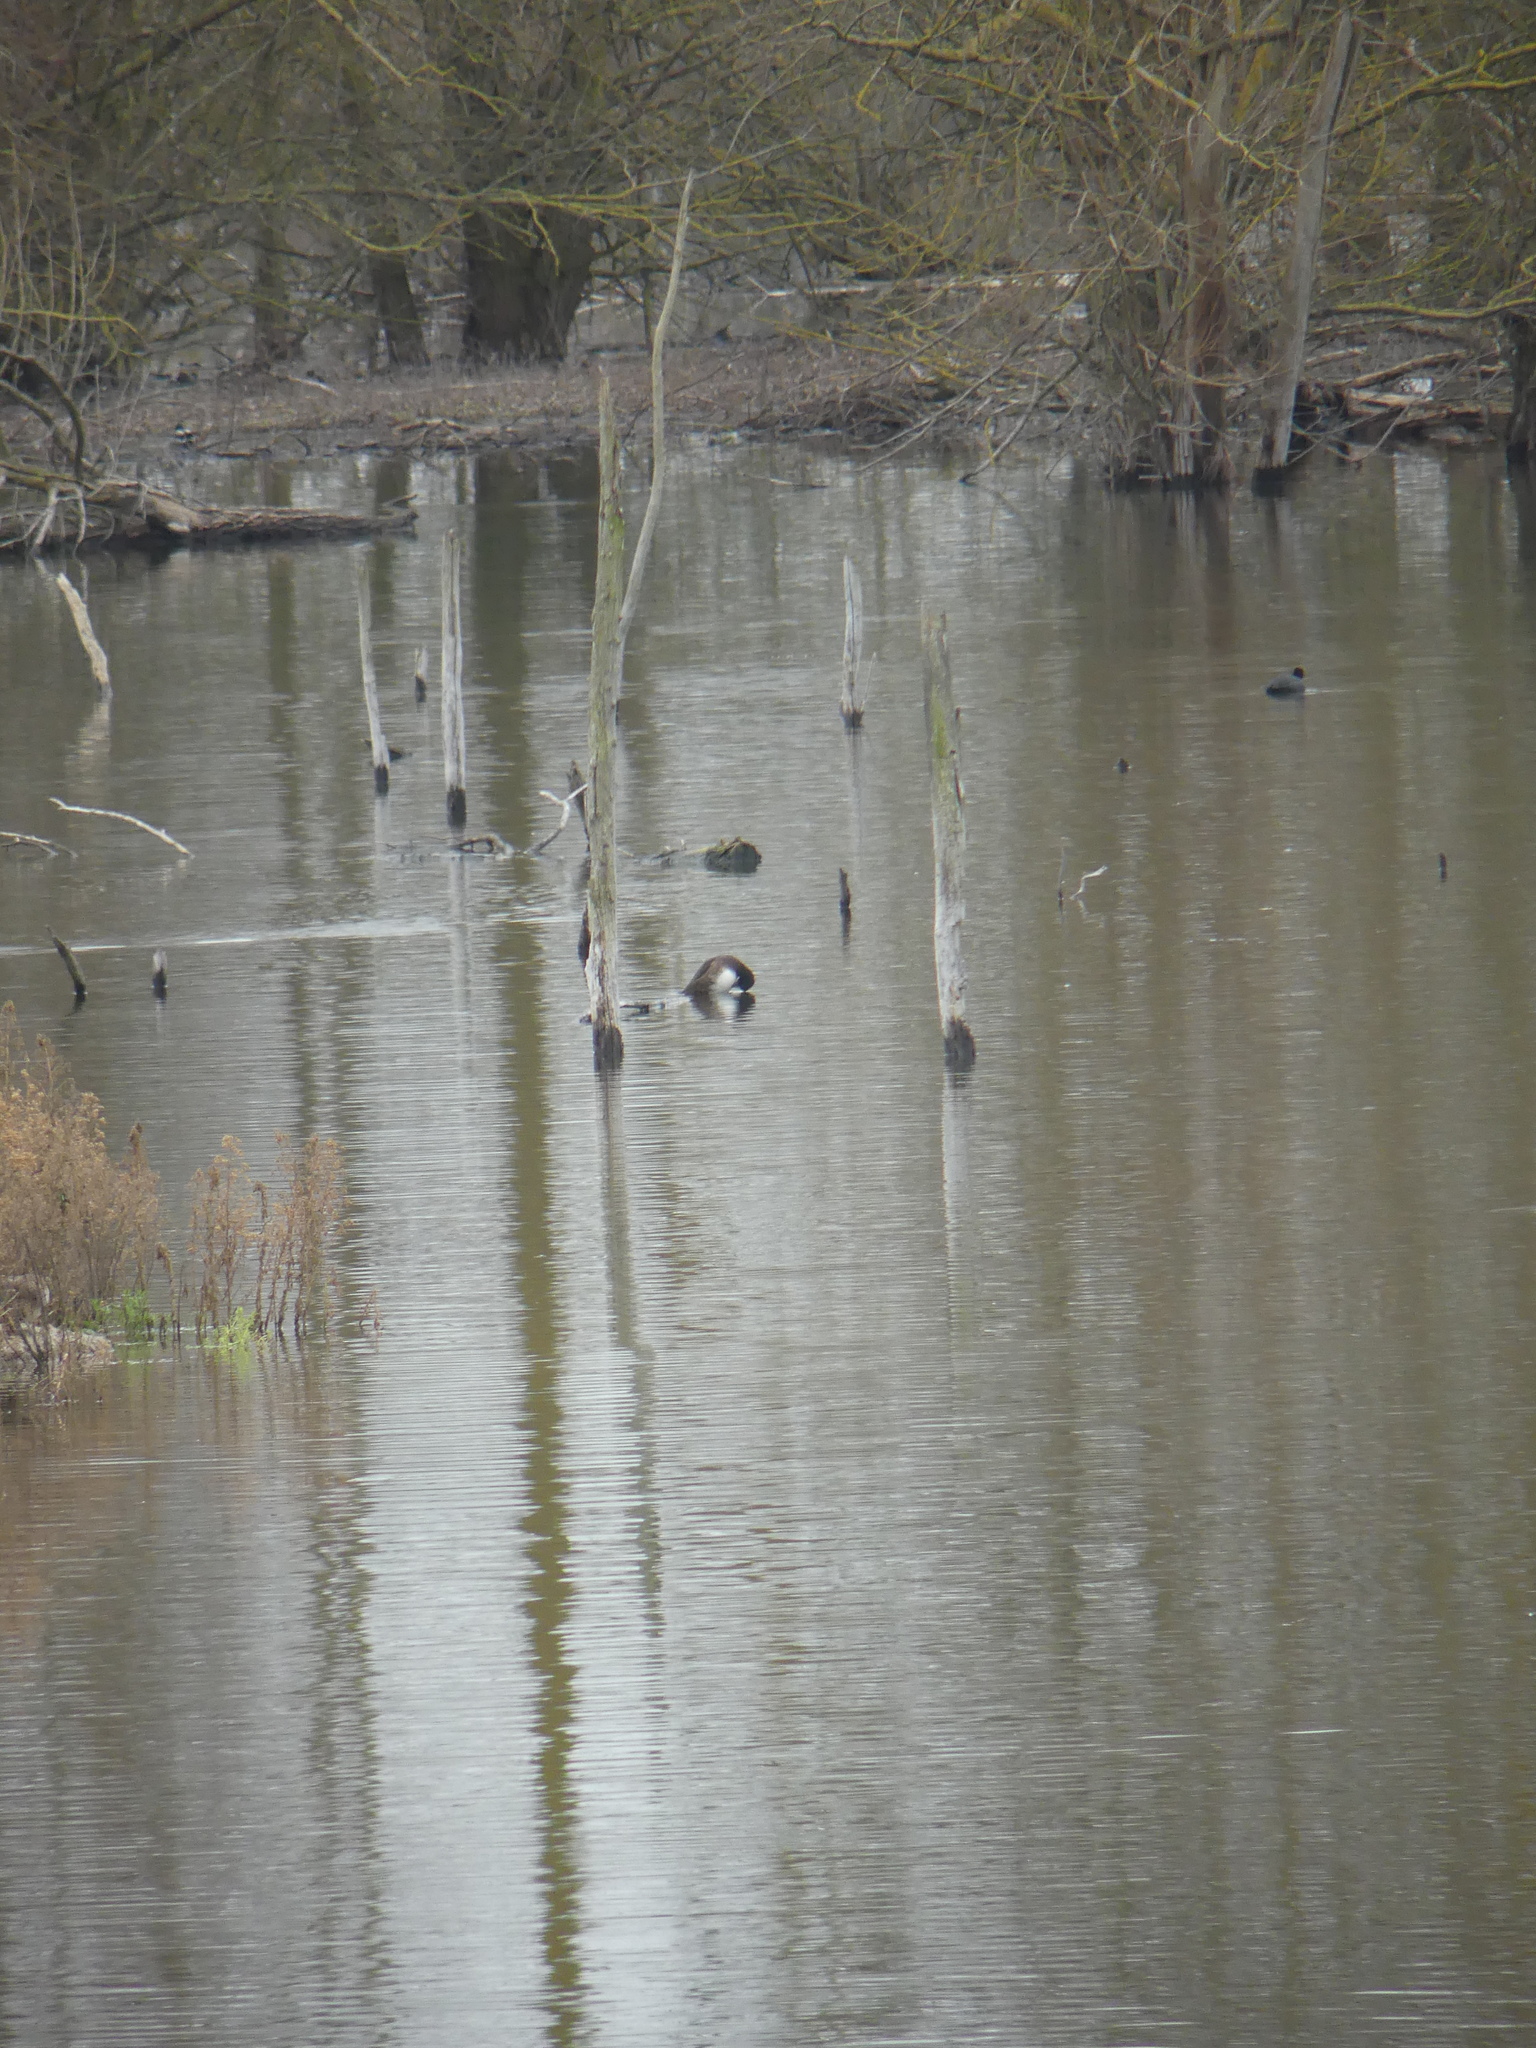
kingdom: Animalia
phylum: Chordata
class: Aves
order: Anseriformes
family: Anatidae
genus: Aythya
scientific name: Aythya fuligula
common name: Tufted duck
